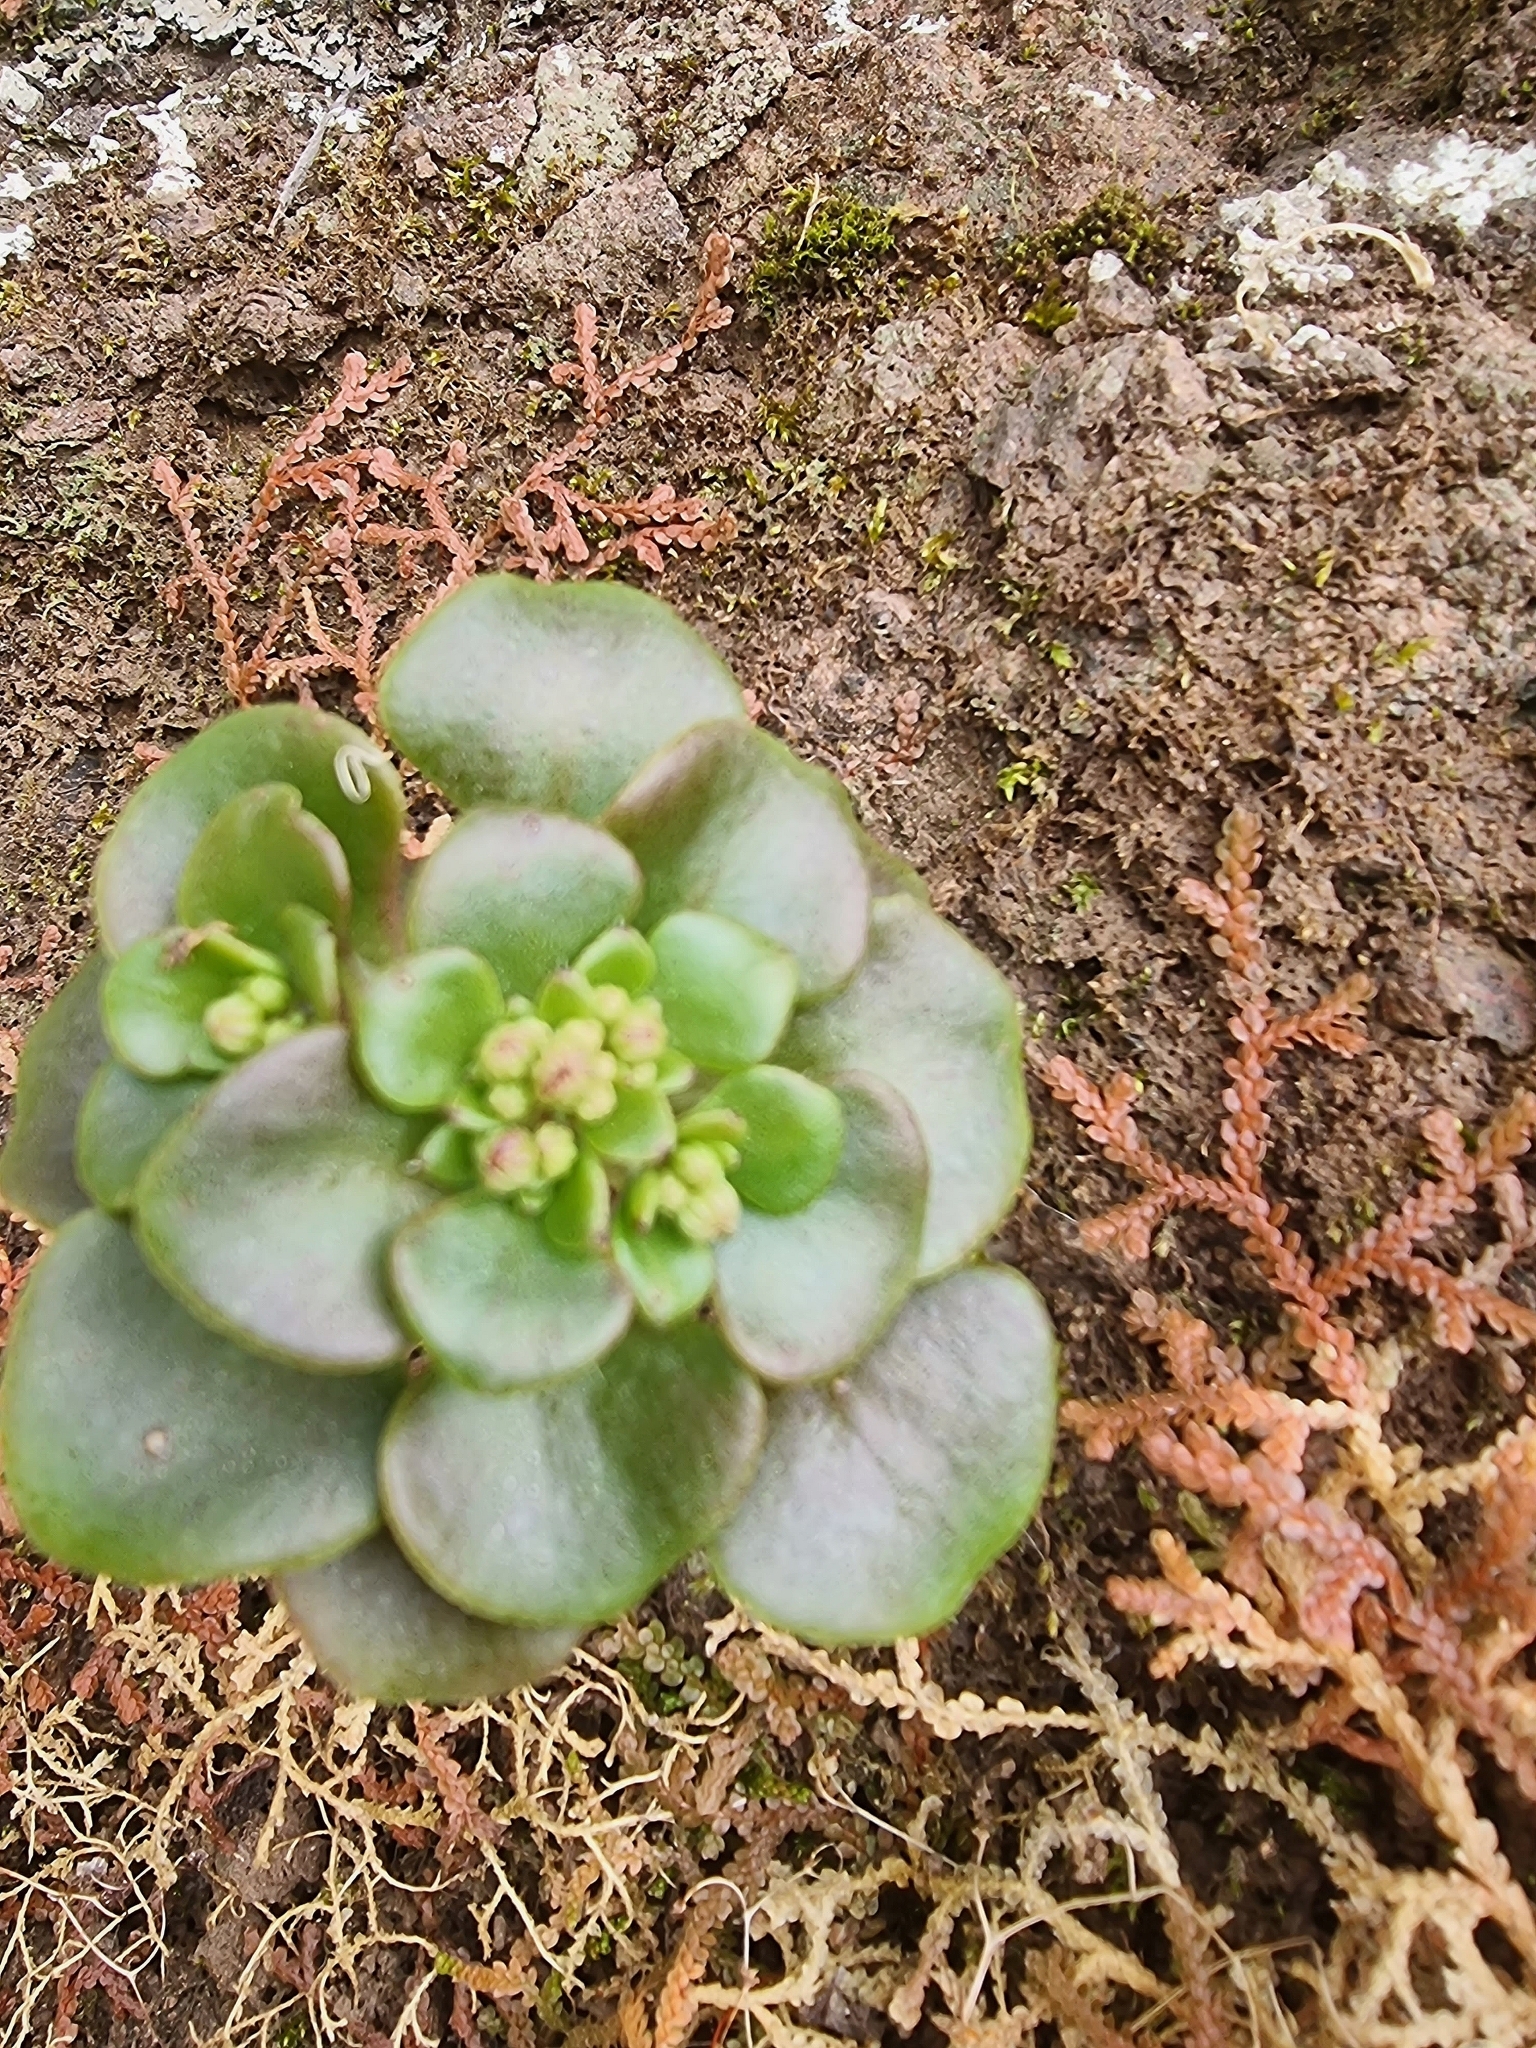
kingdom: Plantae
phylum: Tracheophyta
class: Magnoliopsida
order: Saxifragales
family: Crassulaceae
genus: Aichryson
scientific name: Aichryson divaricatum
